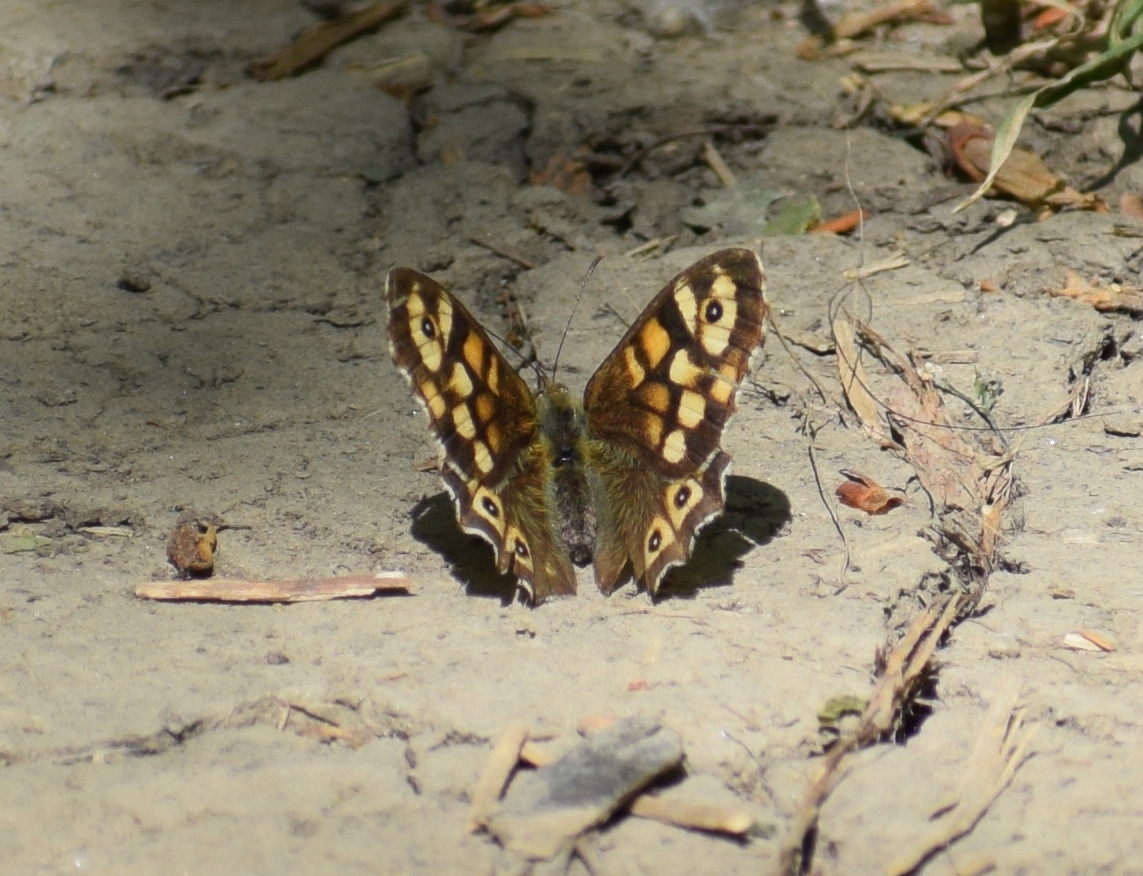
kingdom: Animalia
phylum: Arthropoda
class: Insecta
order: Lepidoptera
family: Nymphalidae
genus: Pararge
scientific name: Pararge aegeria
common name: Speckled wood
